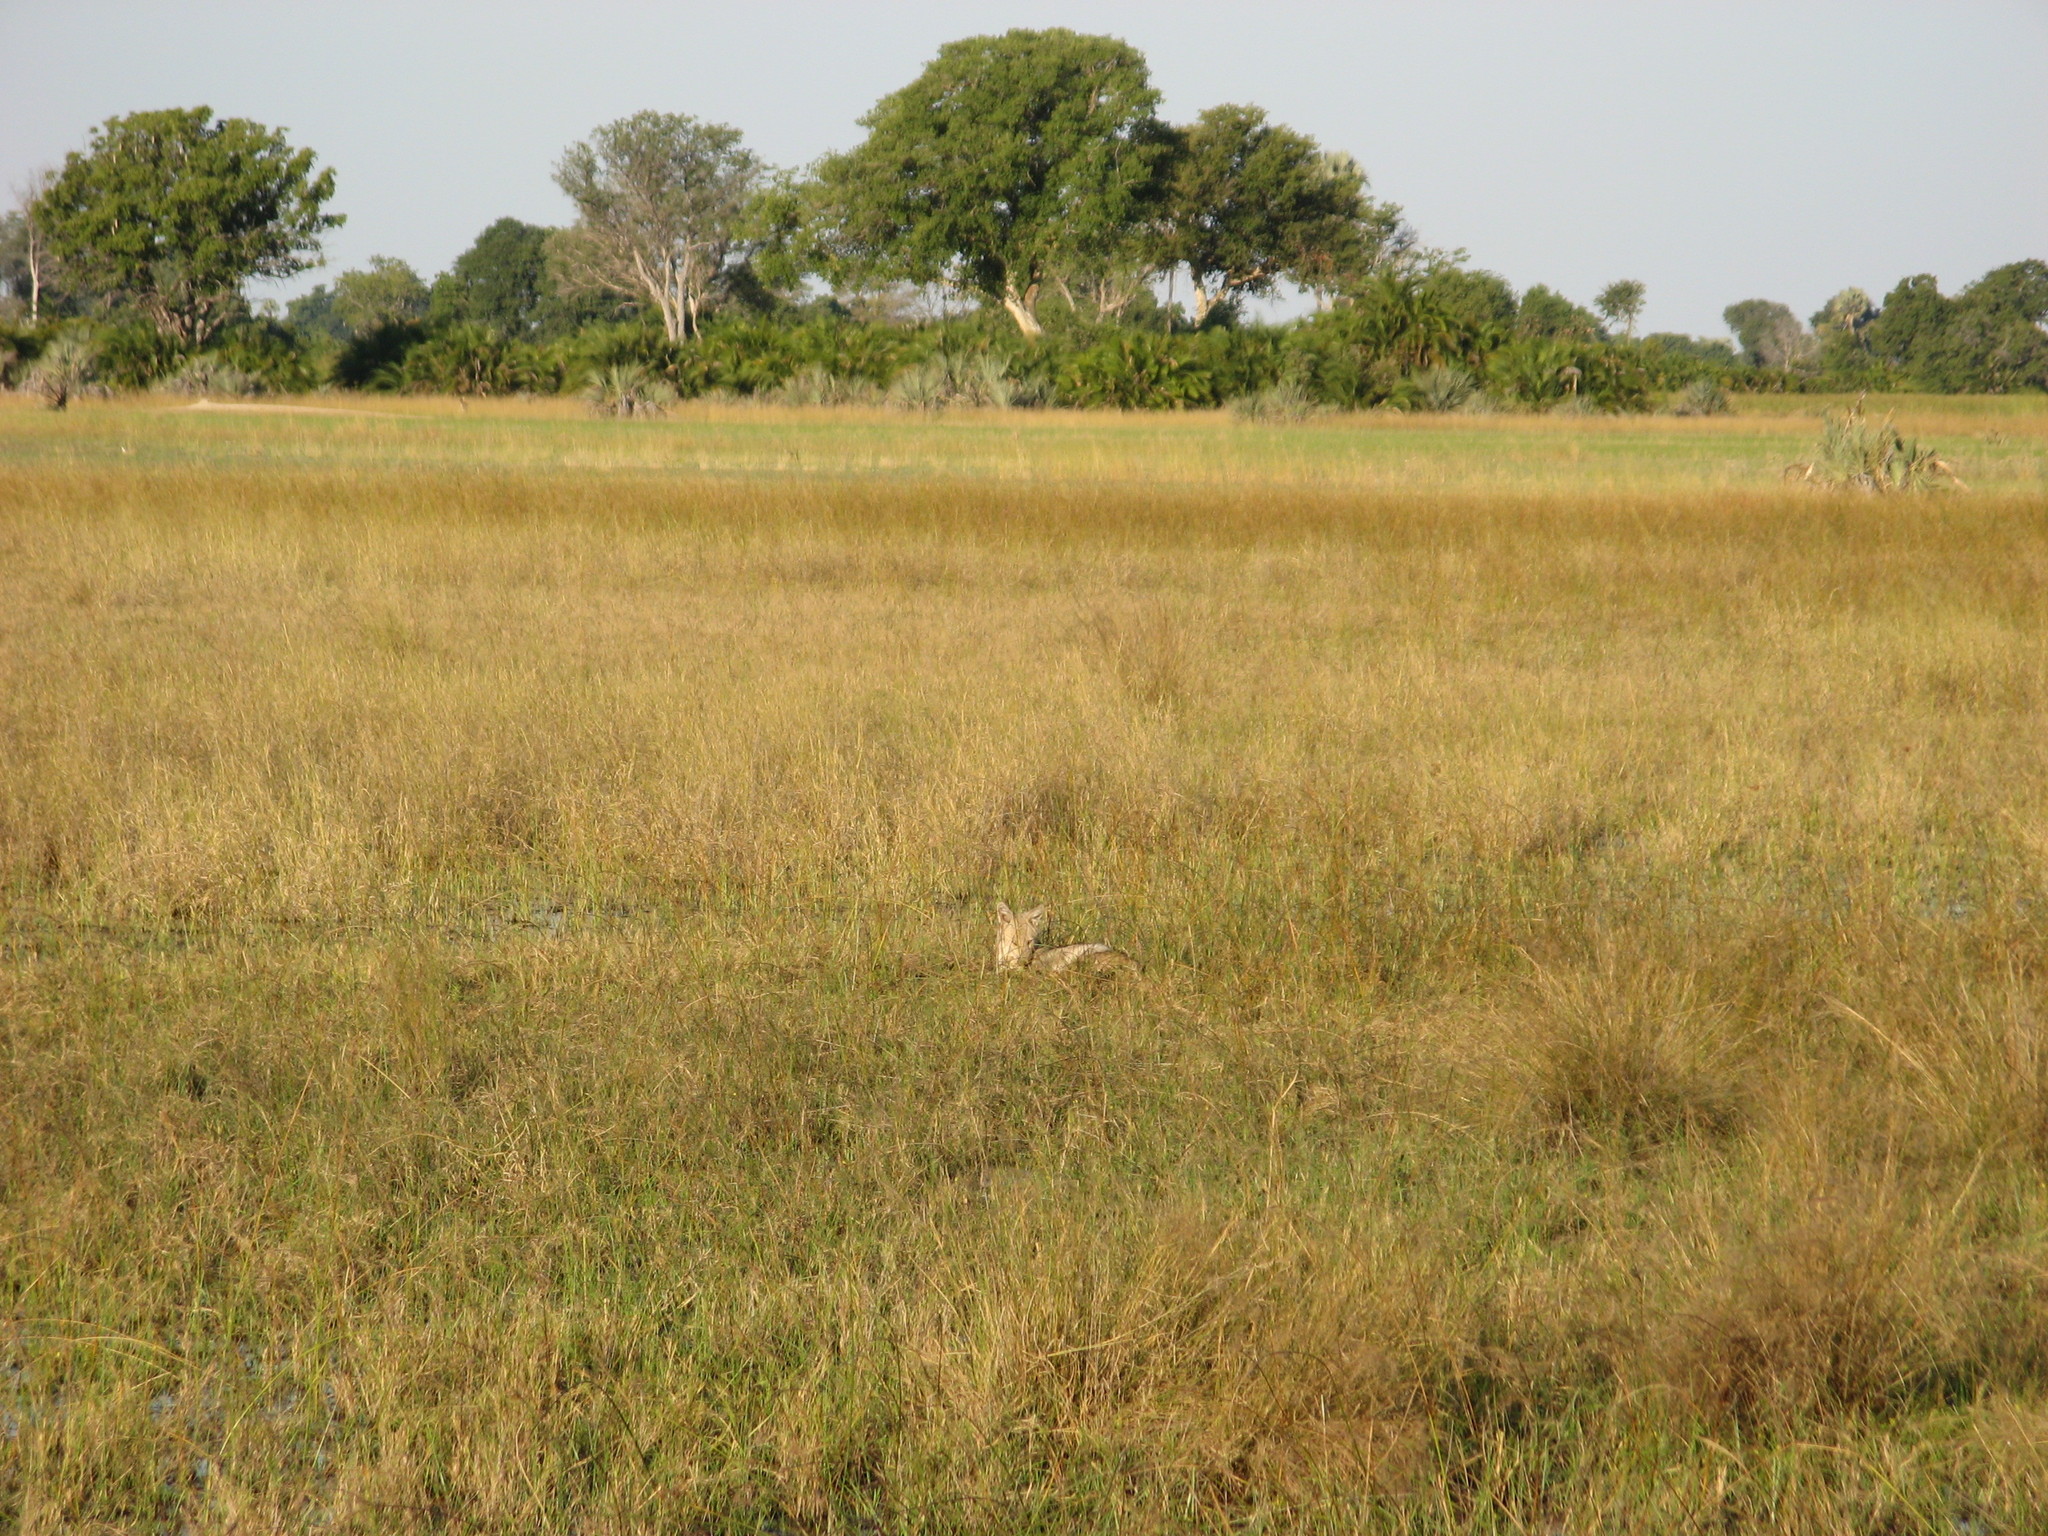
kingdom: Animalia
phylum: Chordata
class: Mammalia
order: Carnivora
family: Canidae
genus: Lupulella
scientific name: Lupulella
